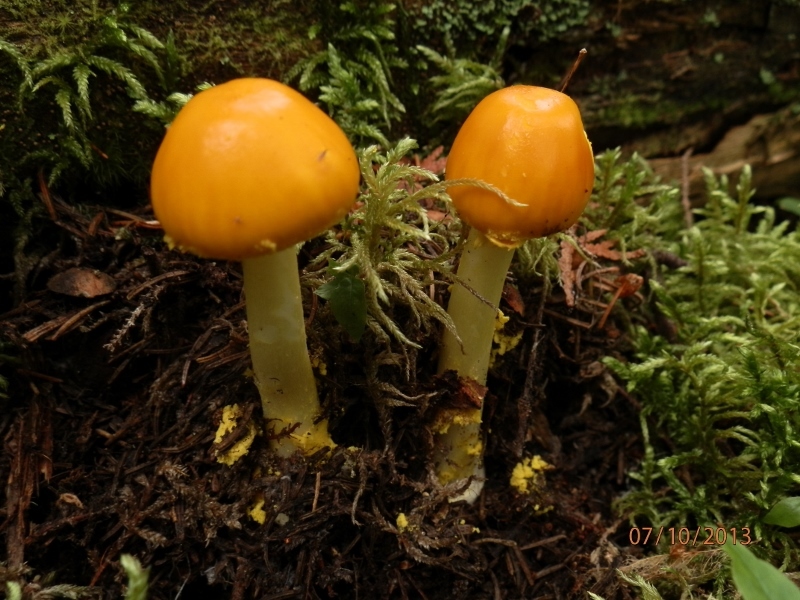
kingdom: Fungi
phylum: Basidiomycota
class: Agaricomycetes
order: Agaricales
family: Amanitaceae
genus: Amanita
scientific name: Amanita flavoconia
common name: Yellow patches
